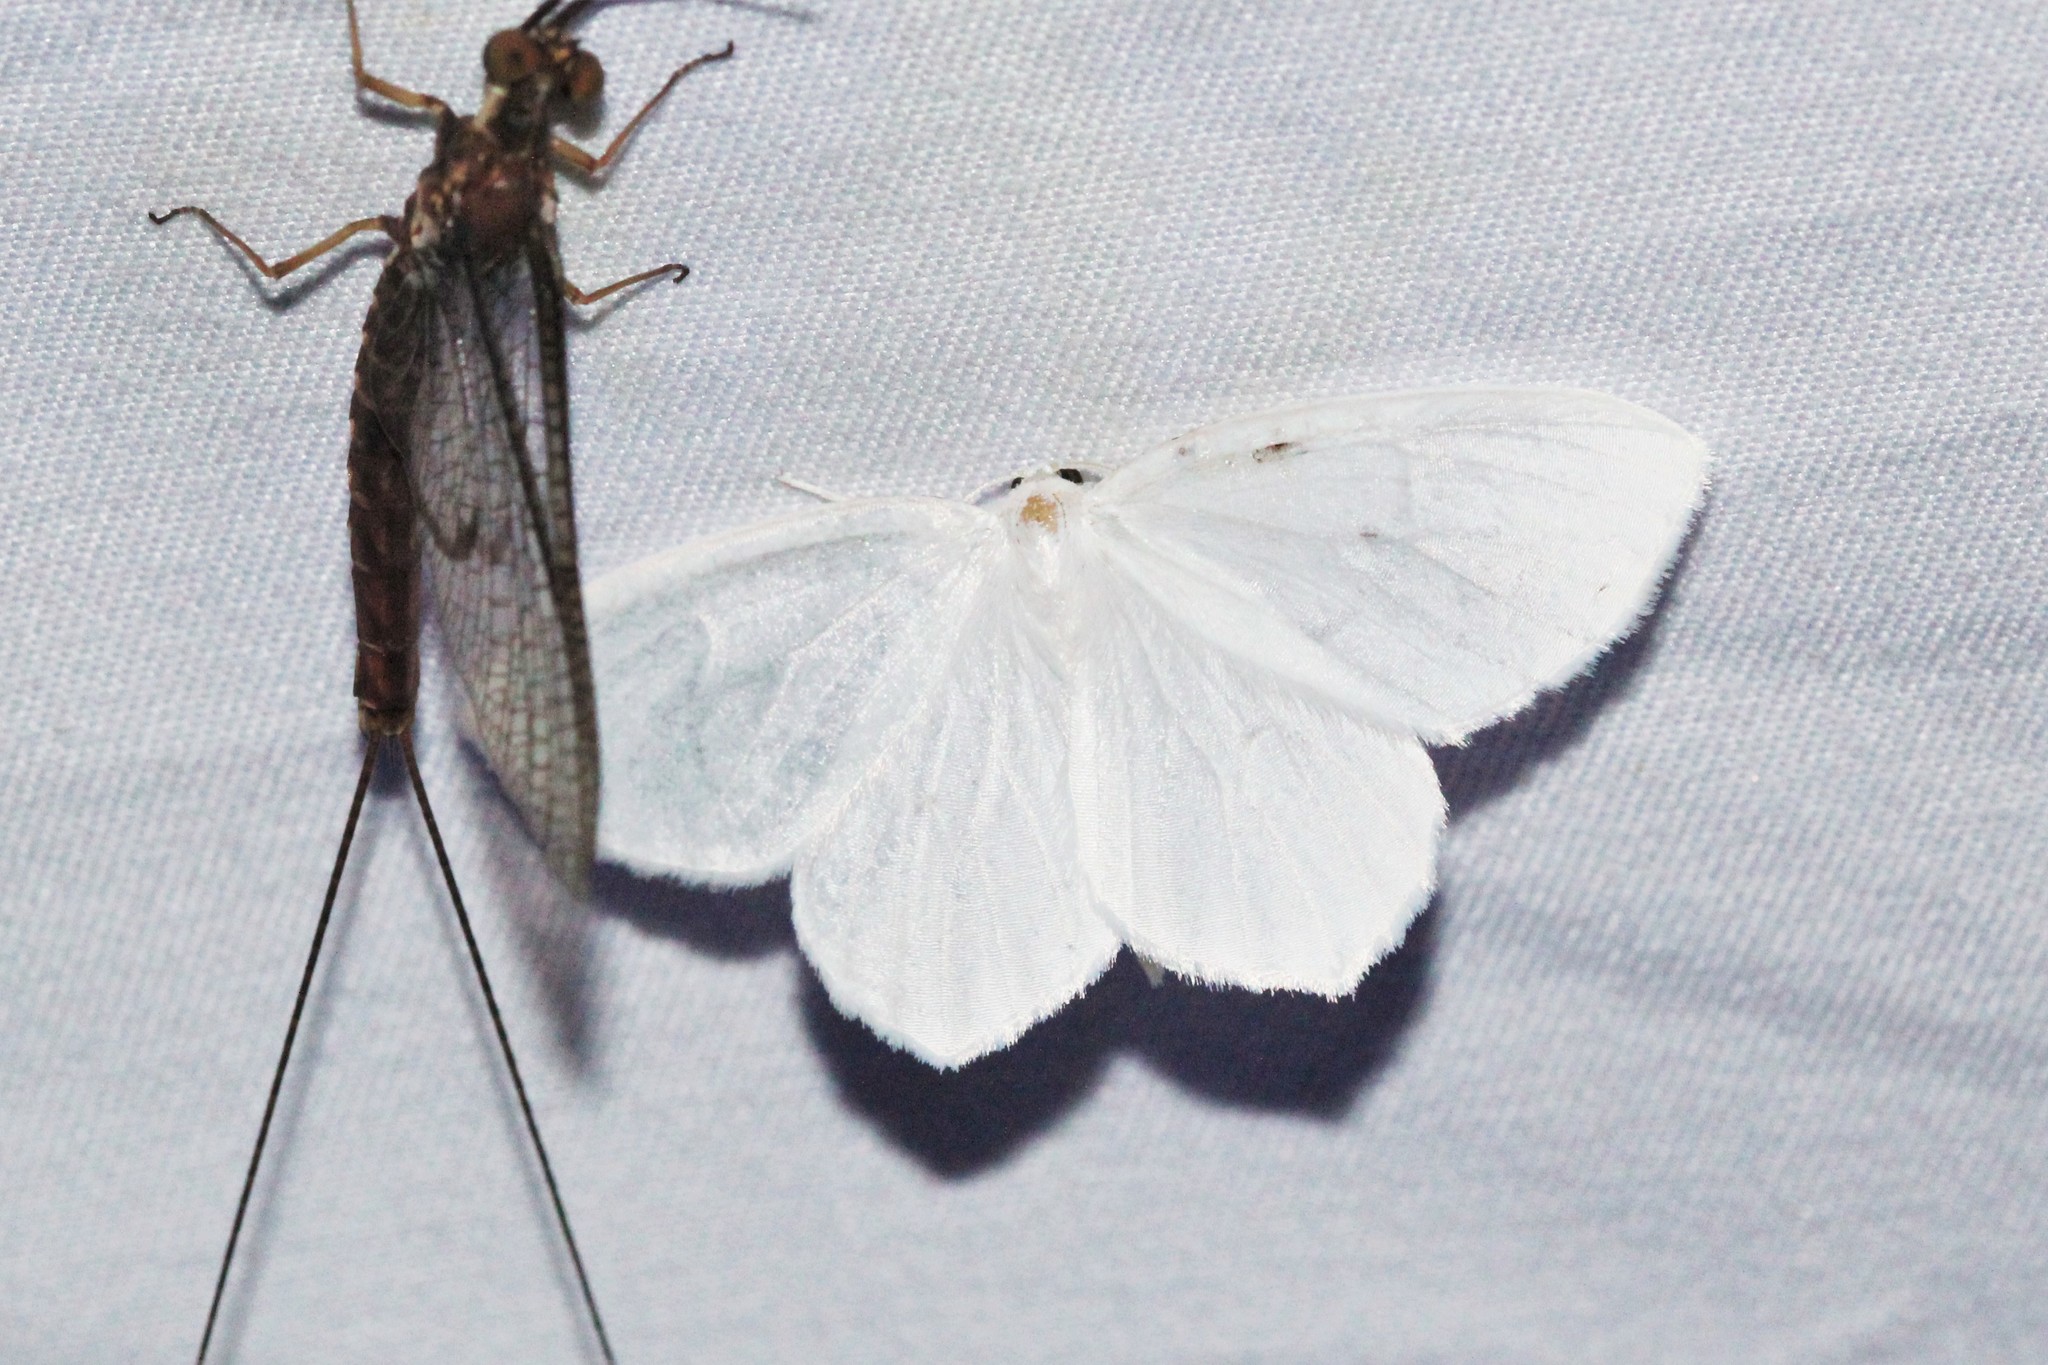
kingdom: Animalia
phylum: Arthropoda
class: Insecta
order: Lepidoptera
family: Geometridae
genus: Eugonobapta
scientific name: Eugonobapta nivosaria
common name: Snowy geometer
